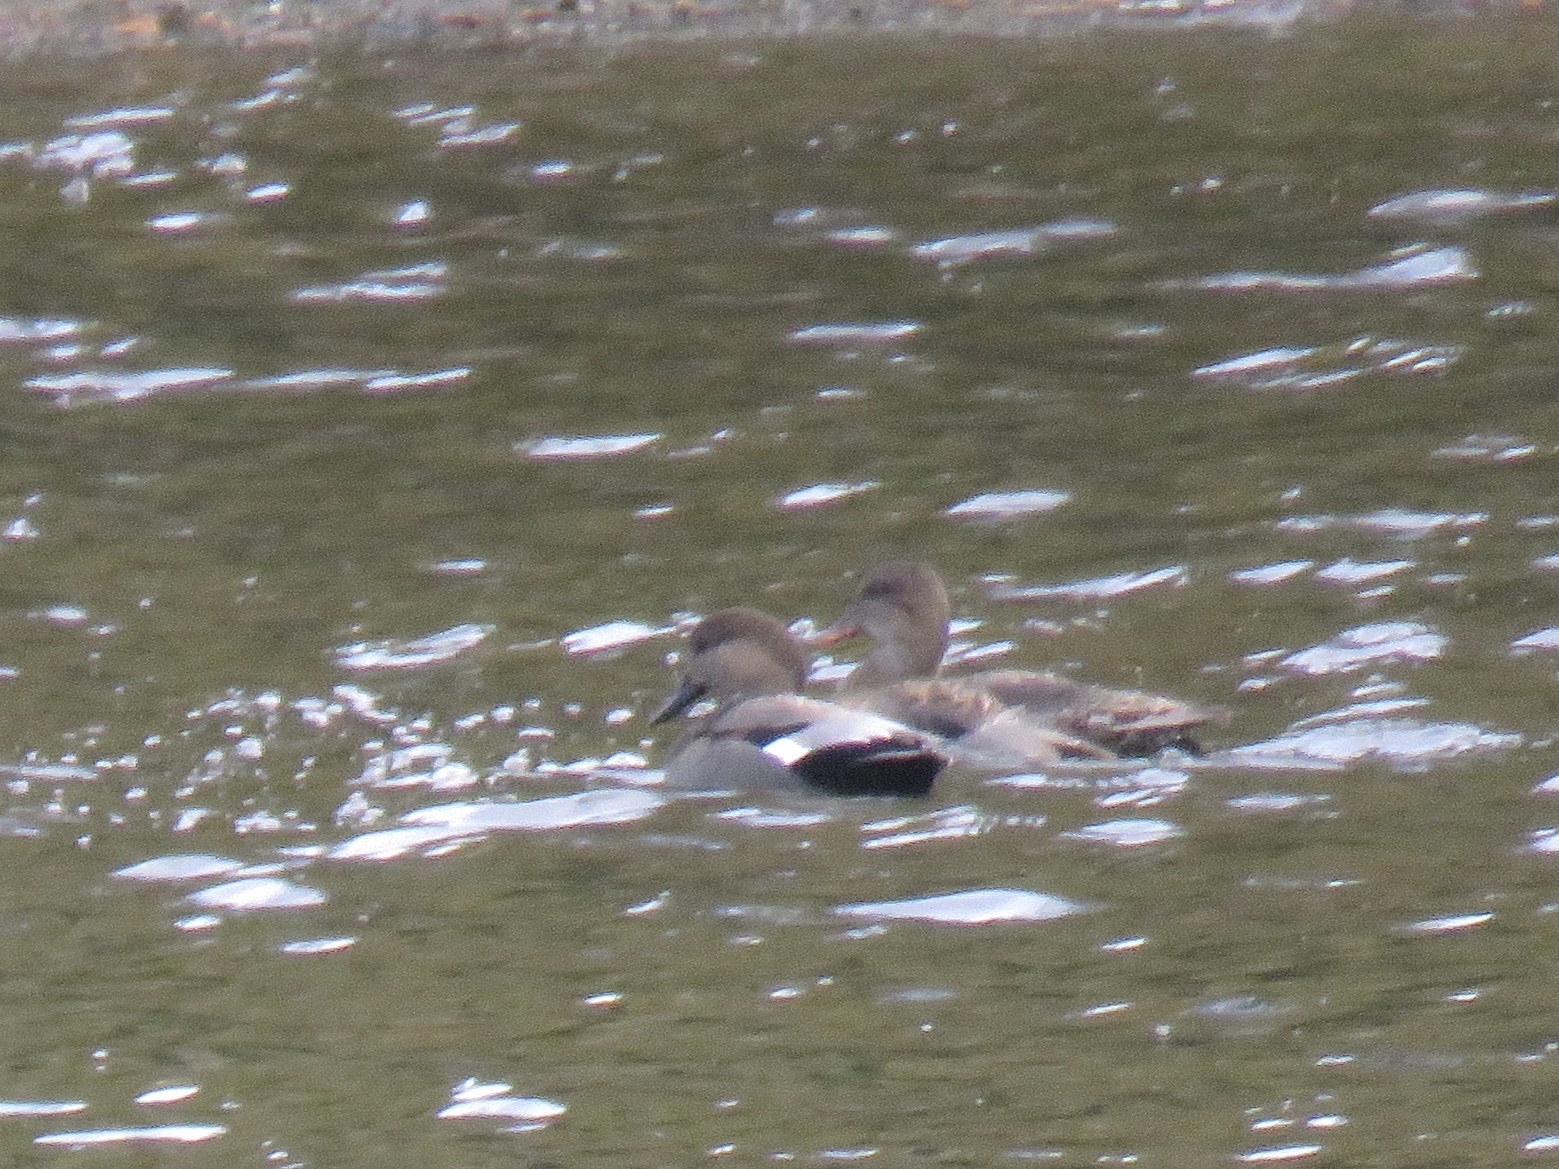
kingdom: Animalia
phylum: Chordata
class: Aves
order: Anseriformes
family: Anatidae
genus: Mareca
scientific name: Mareca strepera
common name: Gadwall
